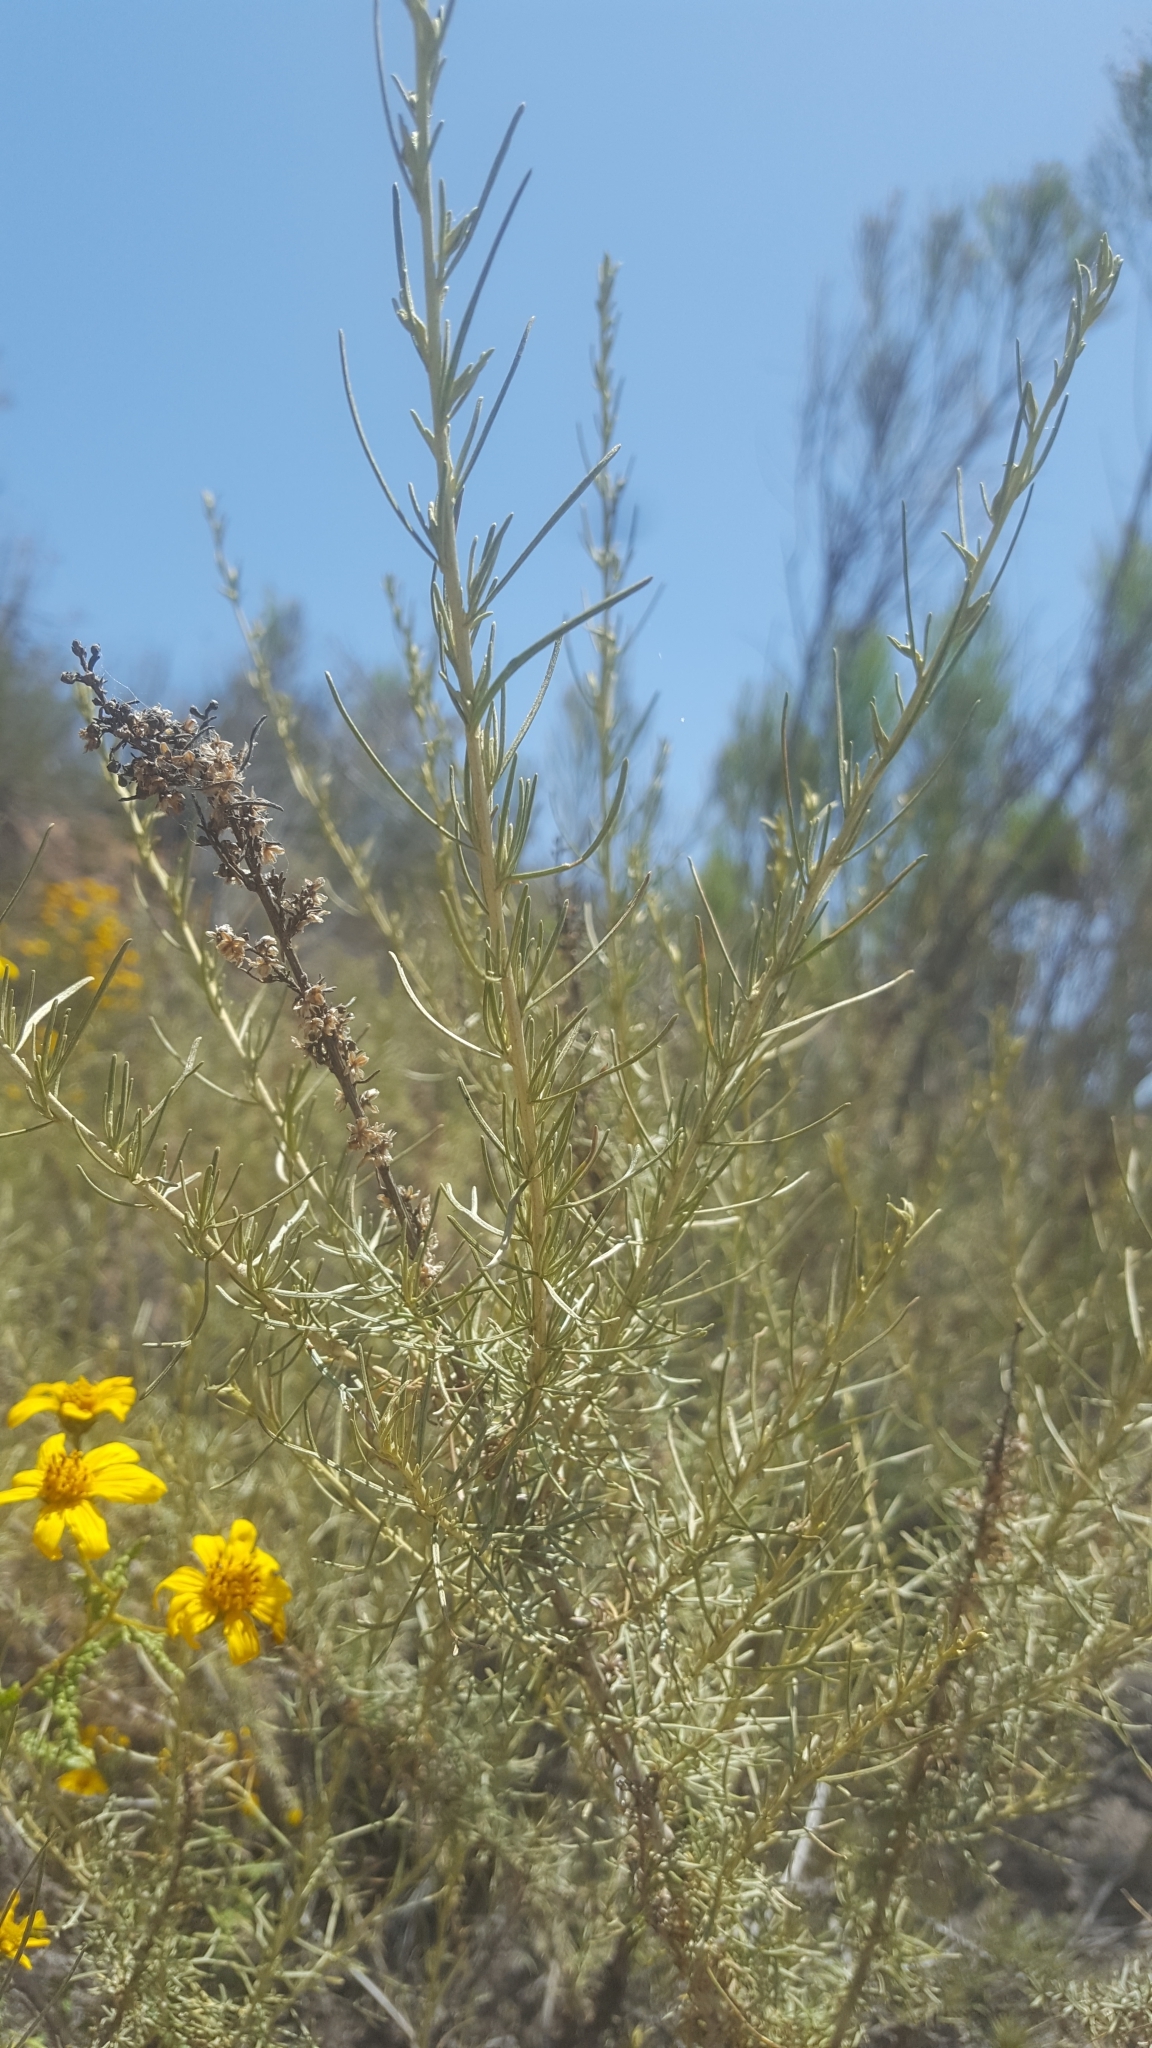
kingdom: Plantae
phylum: Tracheophyta
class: Magnoliopsida
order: Asterales
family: Asteraceae
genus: Artemisia
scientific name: Artemisia californica
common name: California sagebrush
